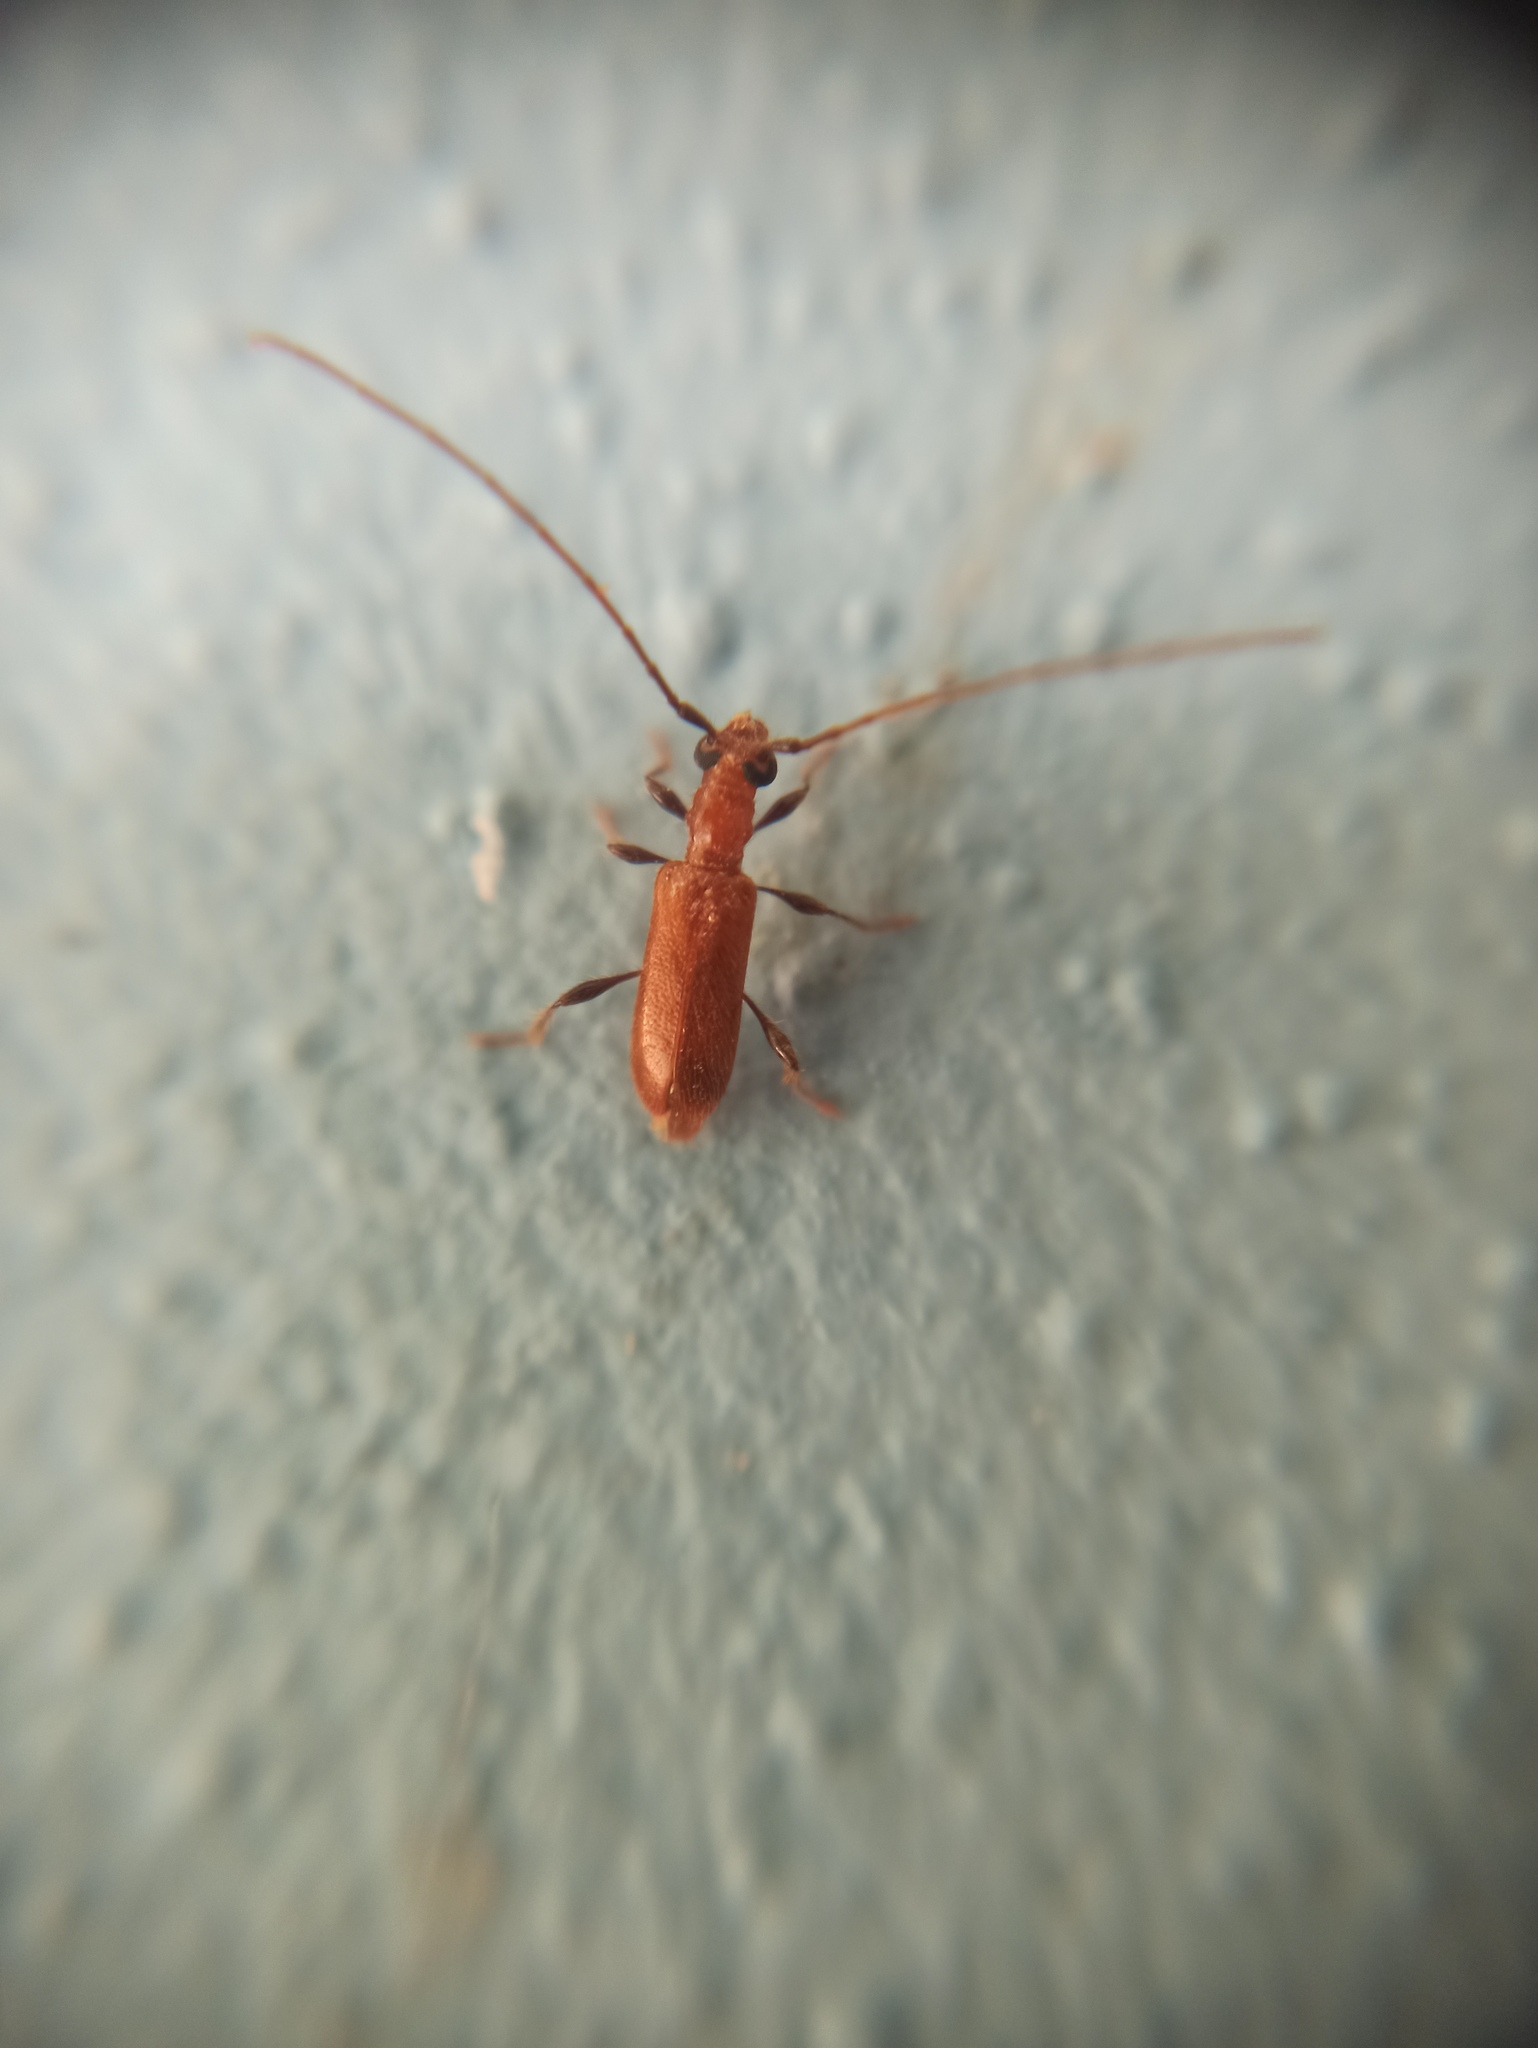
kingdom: Animalia
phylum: Arthropoda
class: Insecta
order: Coleoptera
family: Cerambycidae
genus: Obrium
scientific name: Obrium cantharinum
